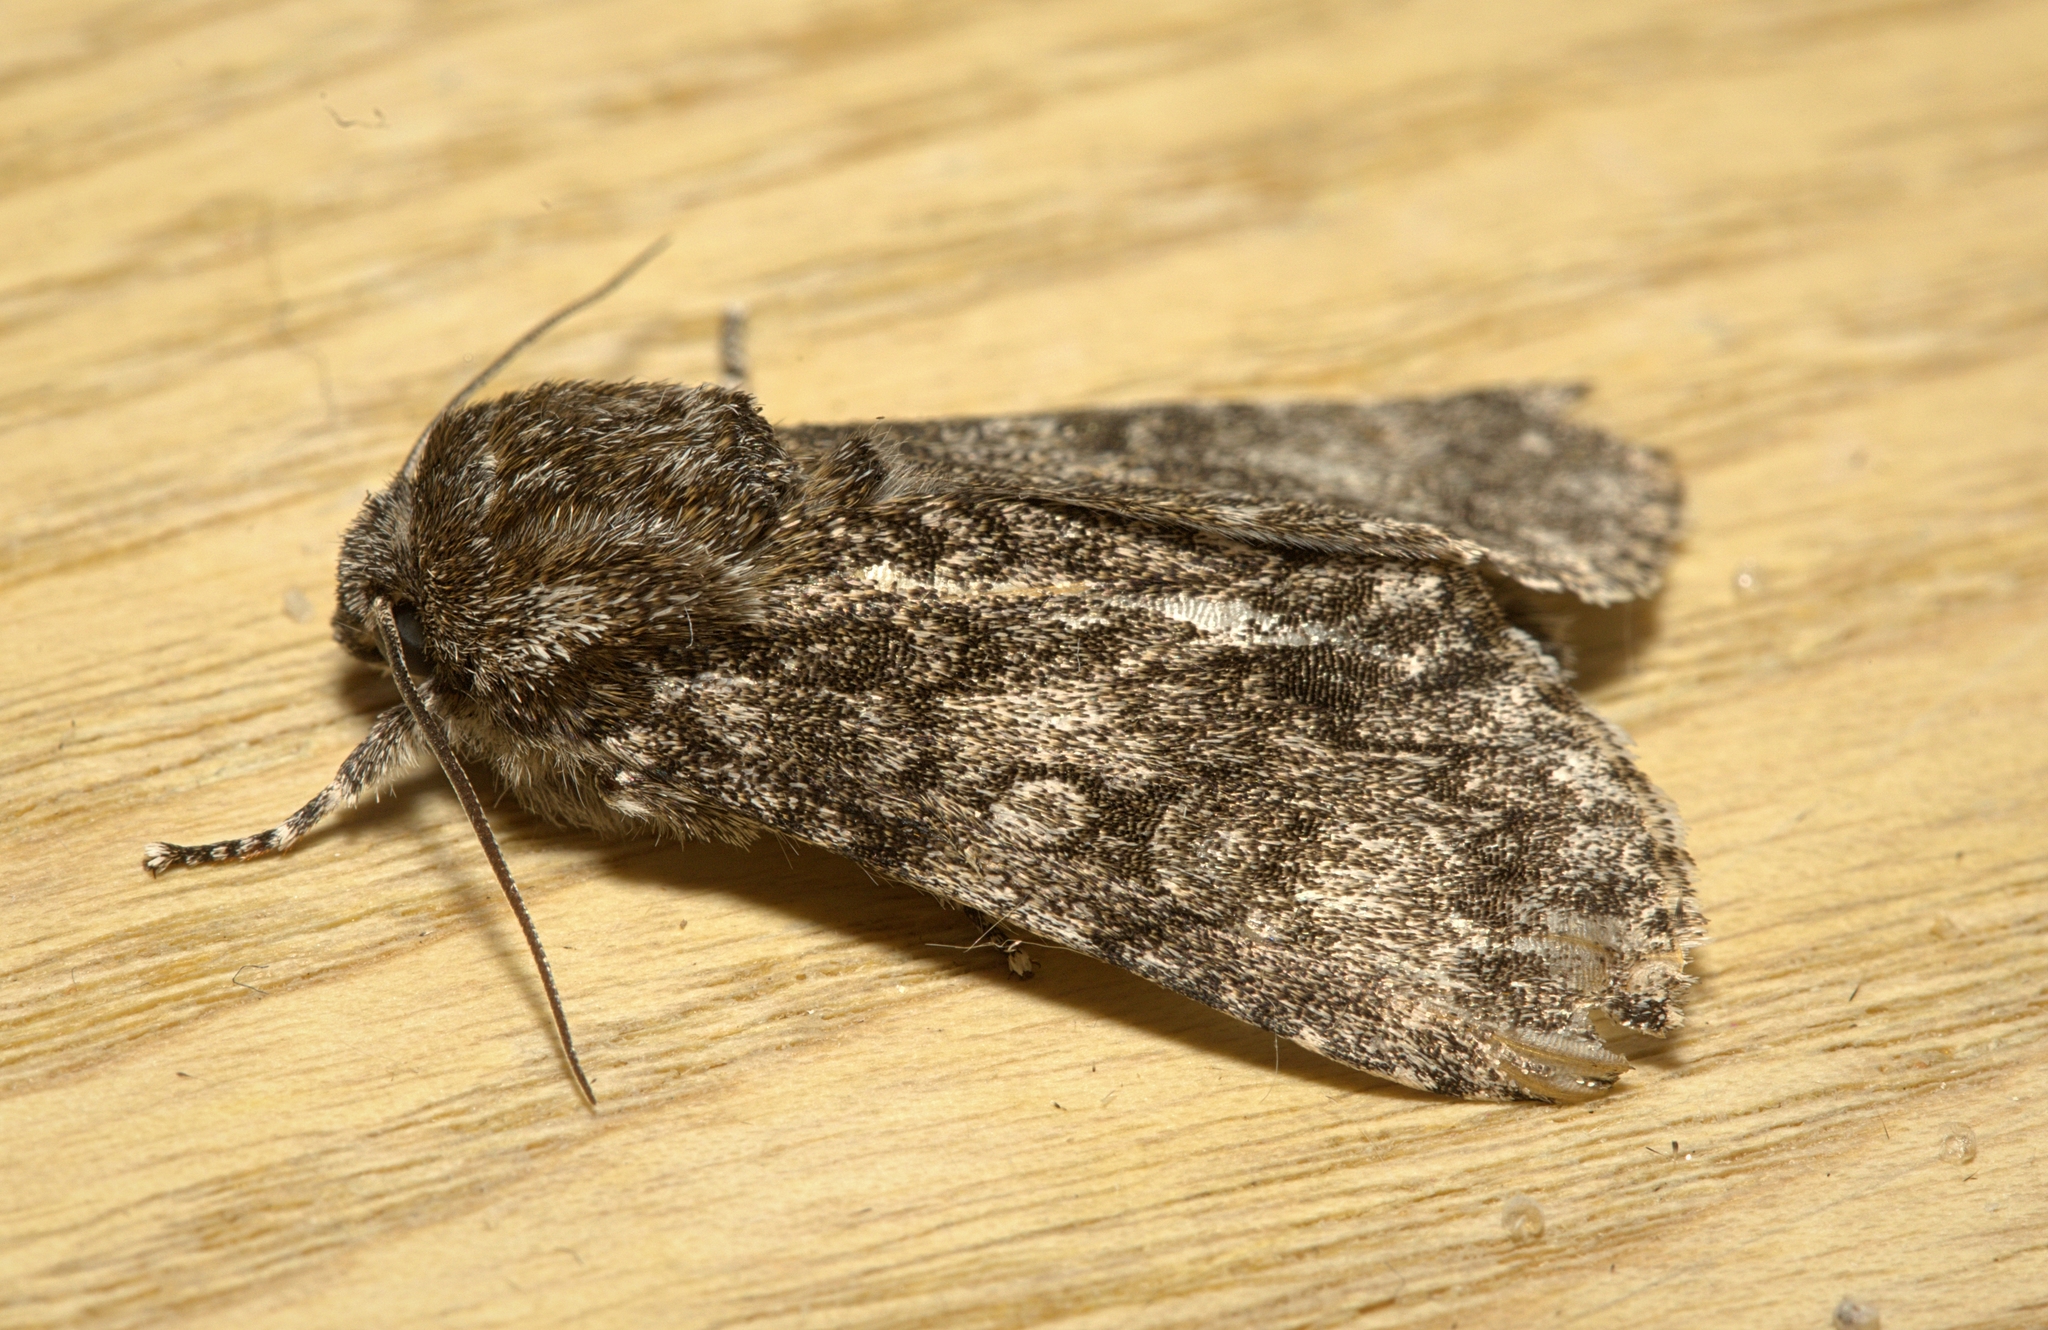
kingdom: Animalia
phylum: Arthropoda
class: Insecta
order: Lepidoptera
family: Noctuidae
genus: Acronicta
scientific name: Acronicta megacephala
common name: Poplar grey
